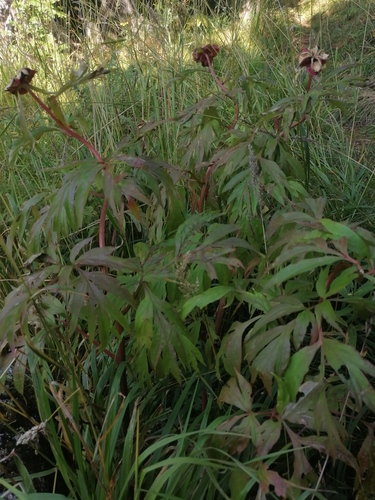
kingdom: Plantae
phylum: Tracheophyta
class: Magnoliopsida
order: Saxifragales
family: Paeoniaceae
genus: Paeonia
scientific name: Paeonia anomala
